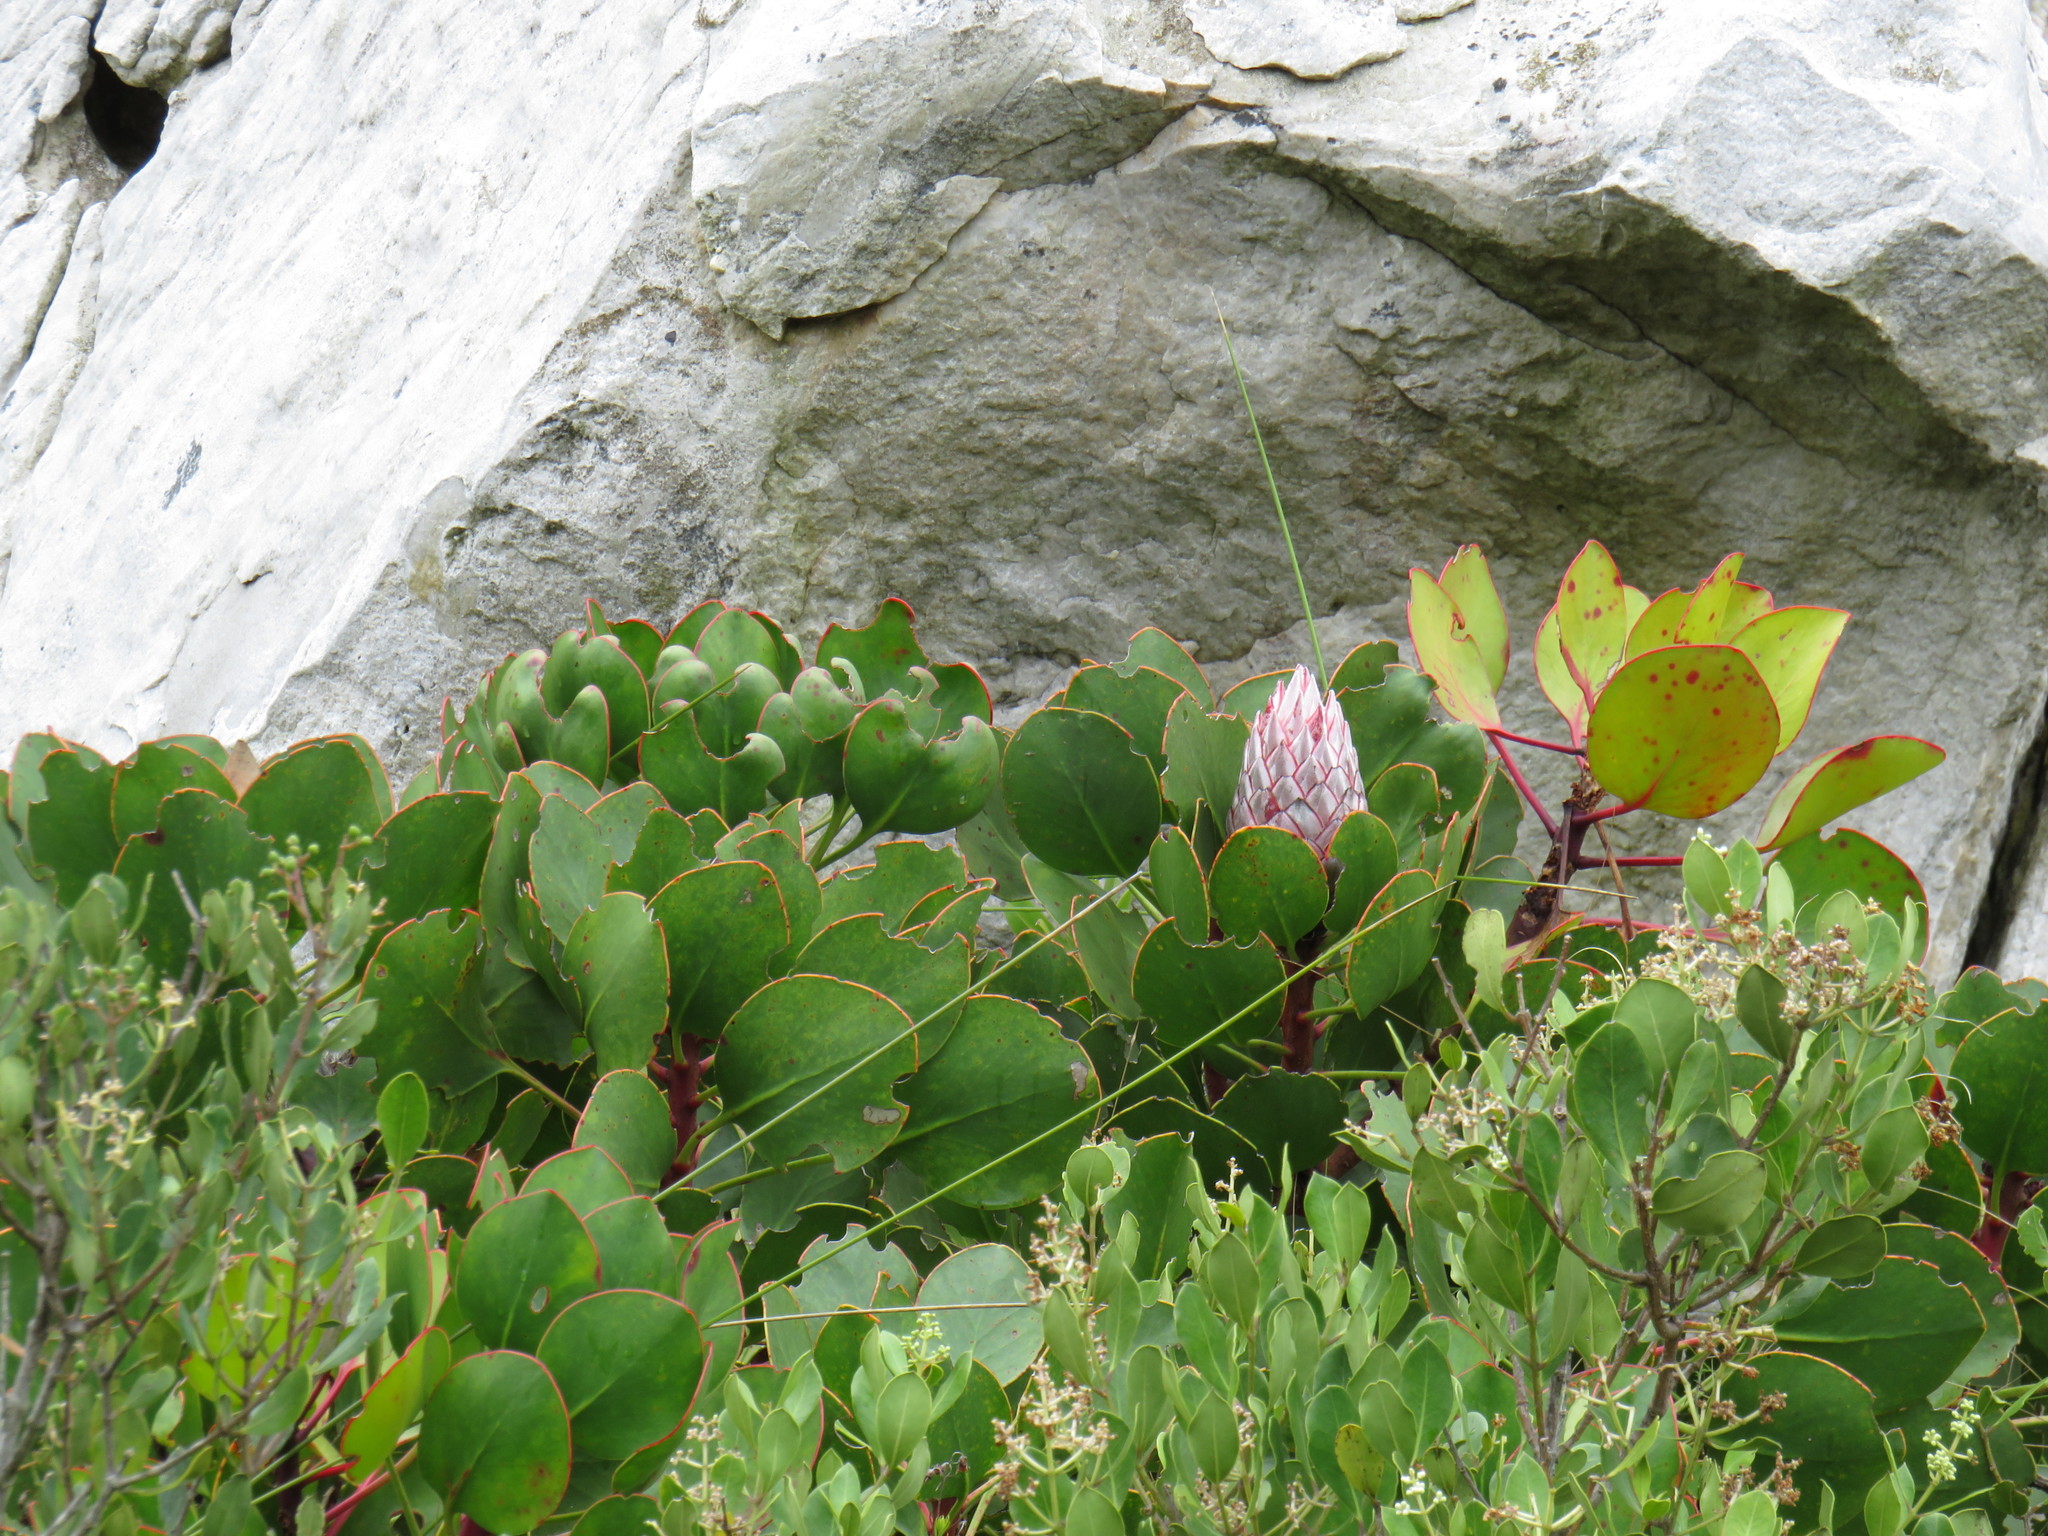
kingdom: Plantae
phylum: Tracheophyta
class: Magnoliopsida
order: Proteales
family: Proteaceae
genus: Protea
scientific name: Protea cynaroides
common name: King protea
